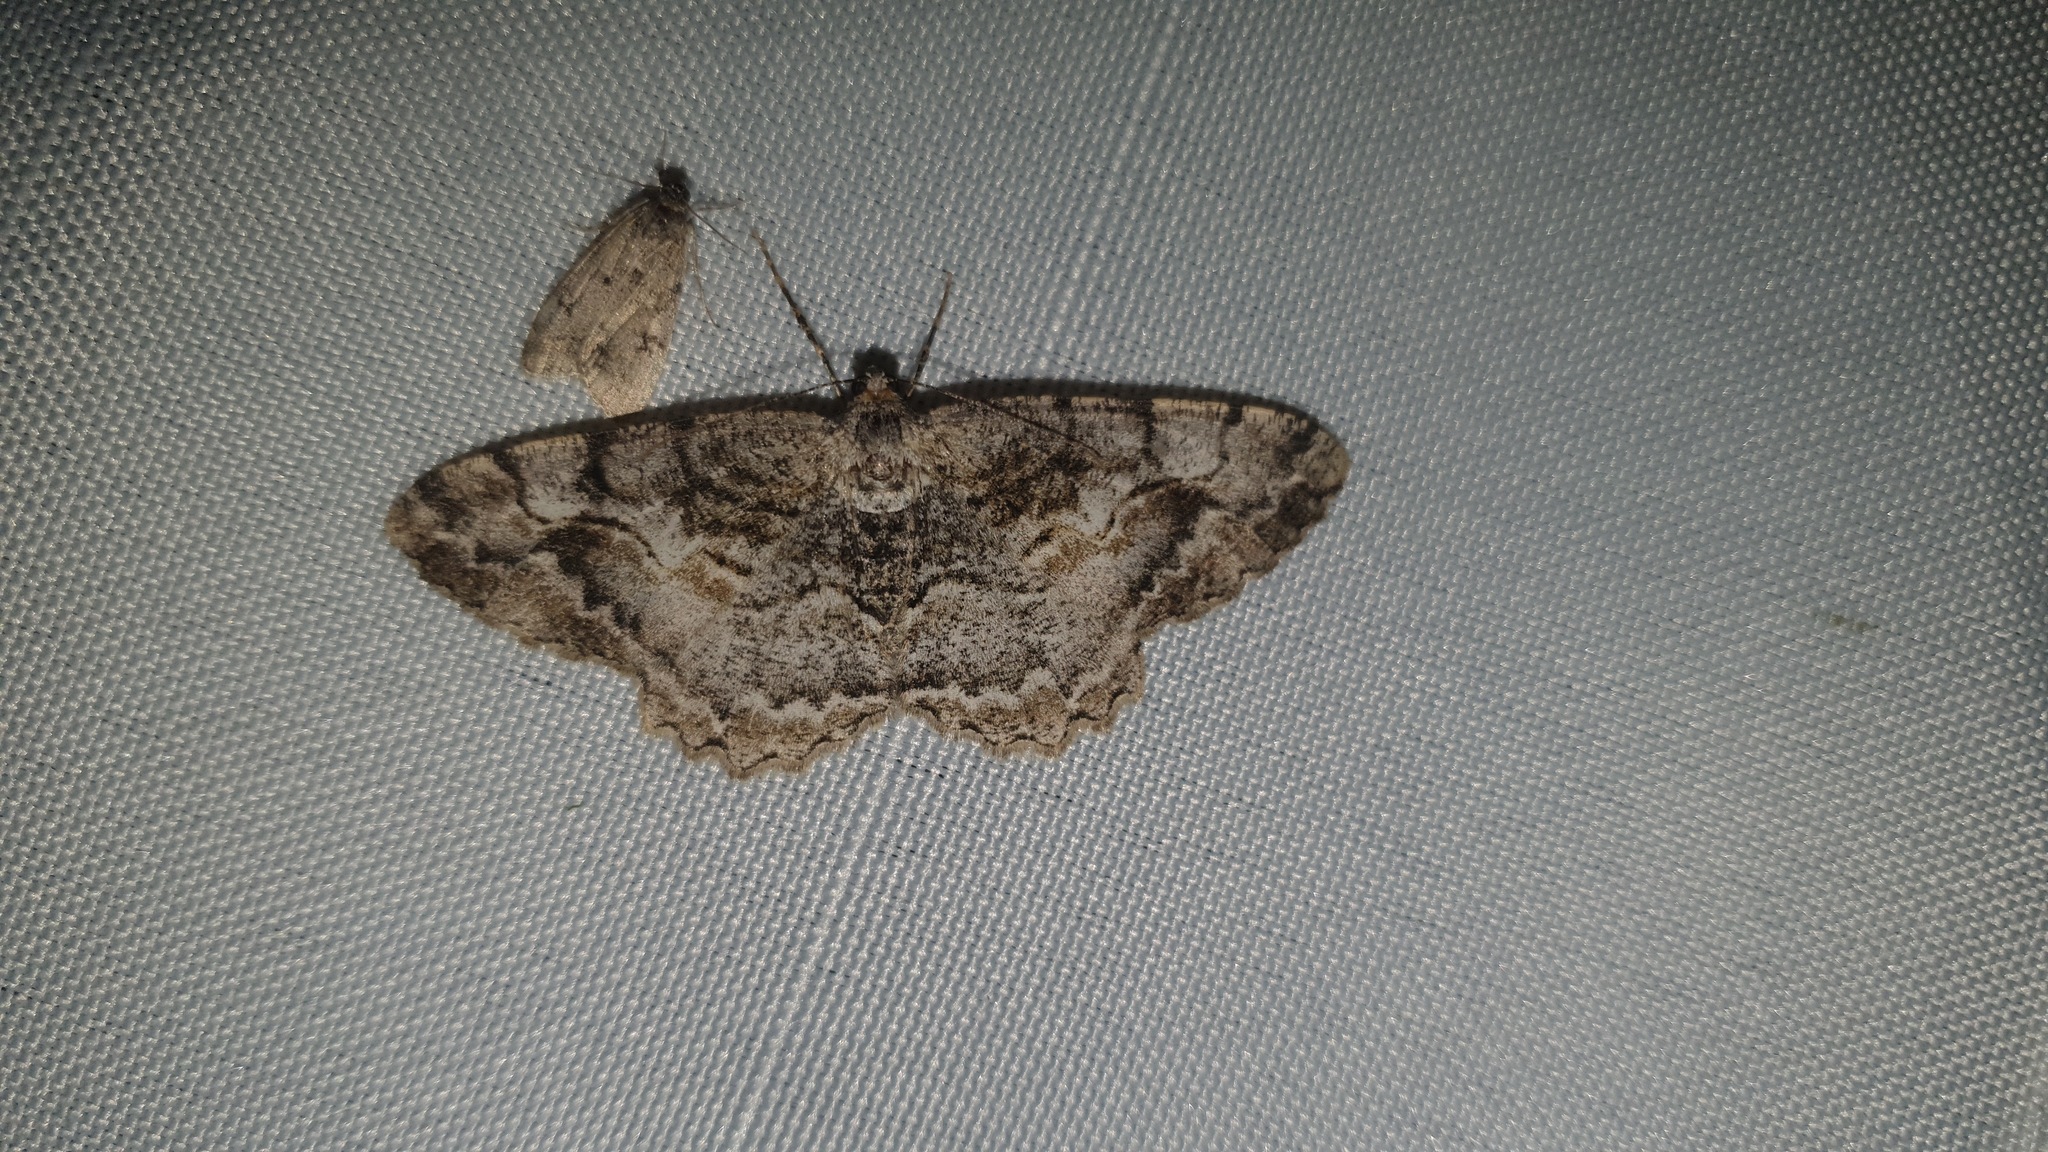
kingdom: Animalia
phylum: Arthropoda
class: Insecta
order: Lepidoptera
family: Geometridae
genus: Alcis
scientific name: Alcis repandata
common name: Mottled beauty
